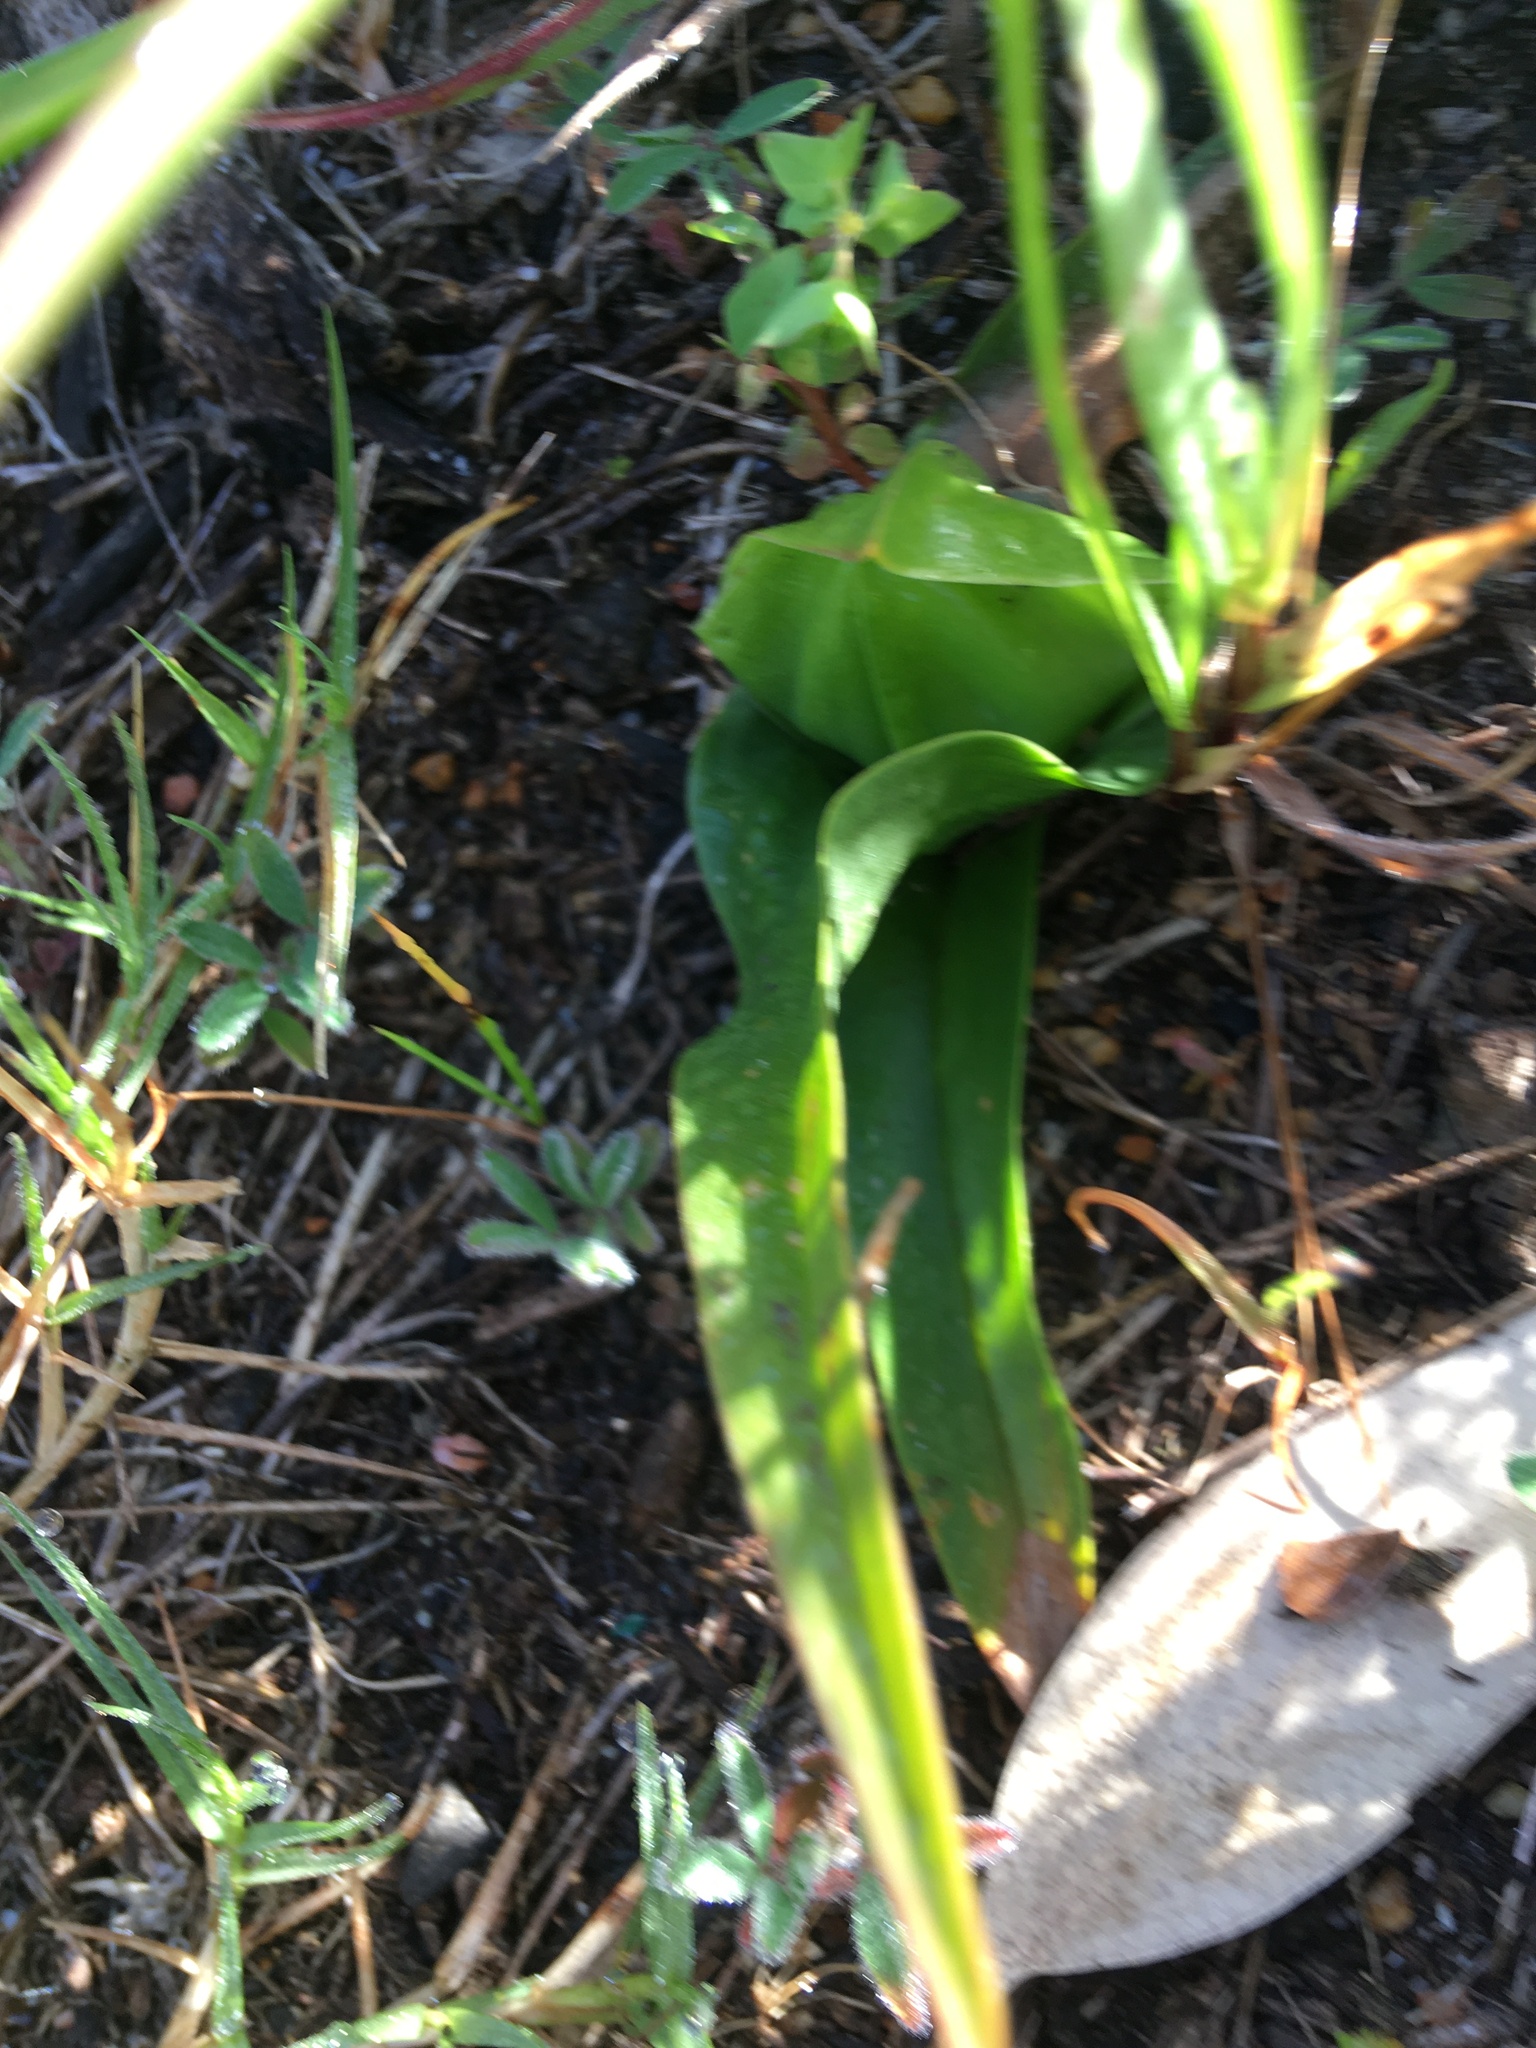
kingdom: Plantae
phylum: Tracheophyta
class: Liliopsida
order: Liliales
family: Colchicaceae
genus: Colchicum
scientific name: Colchicum eucomoides
